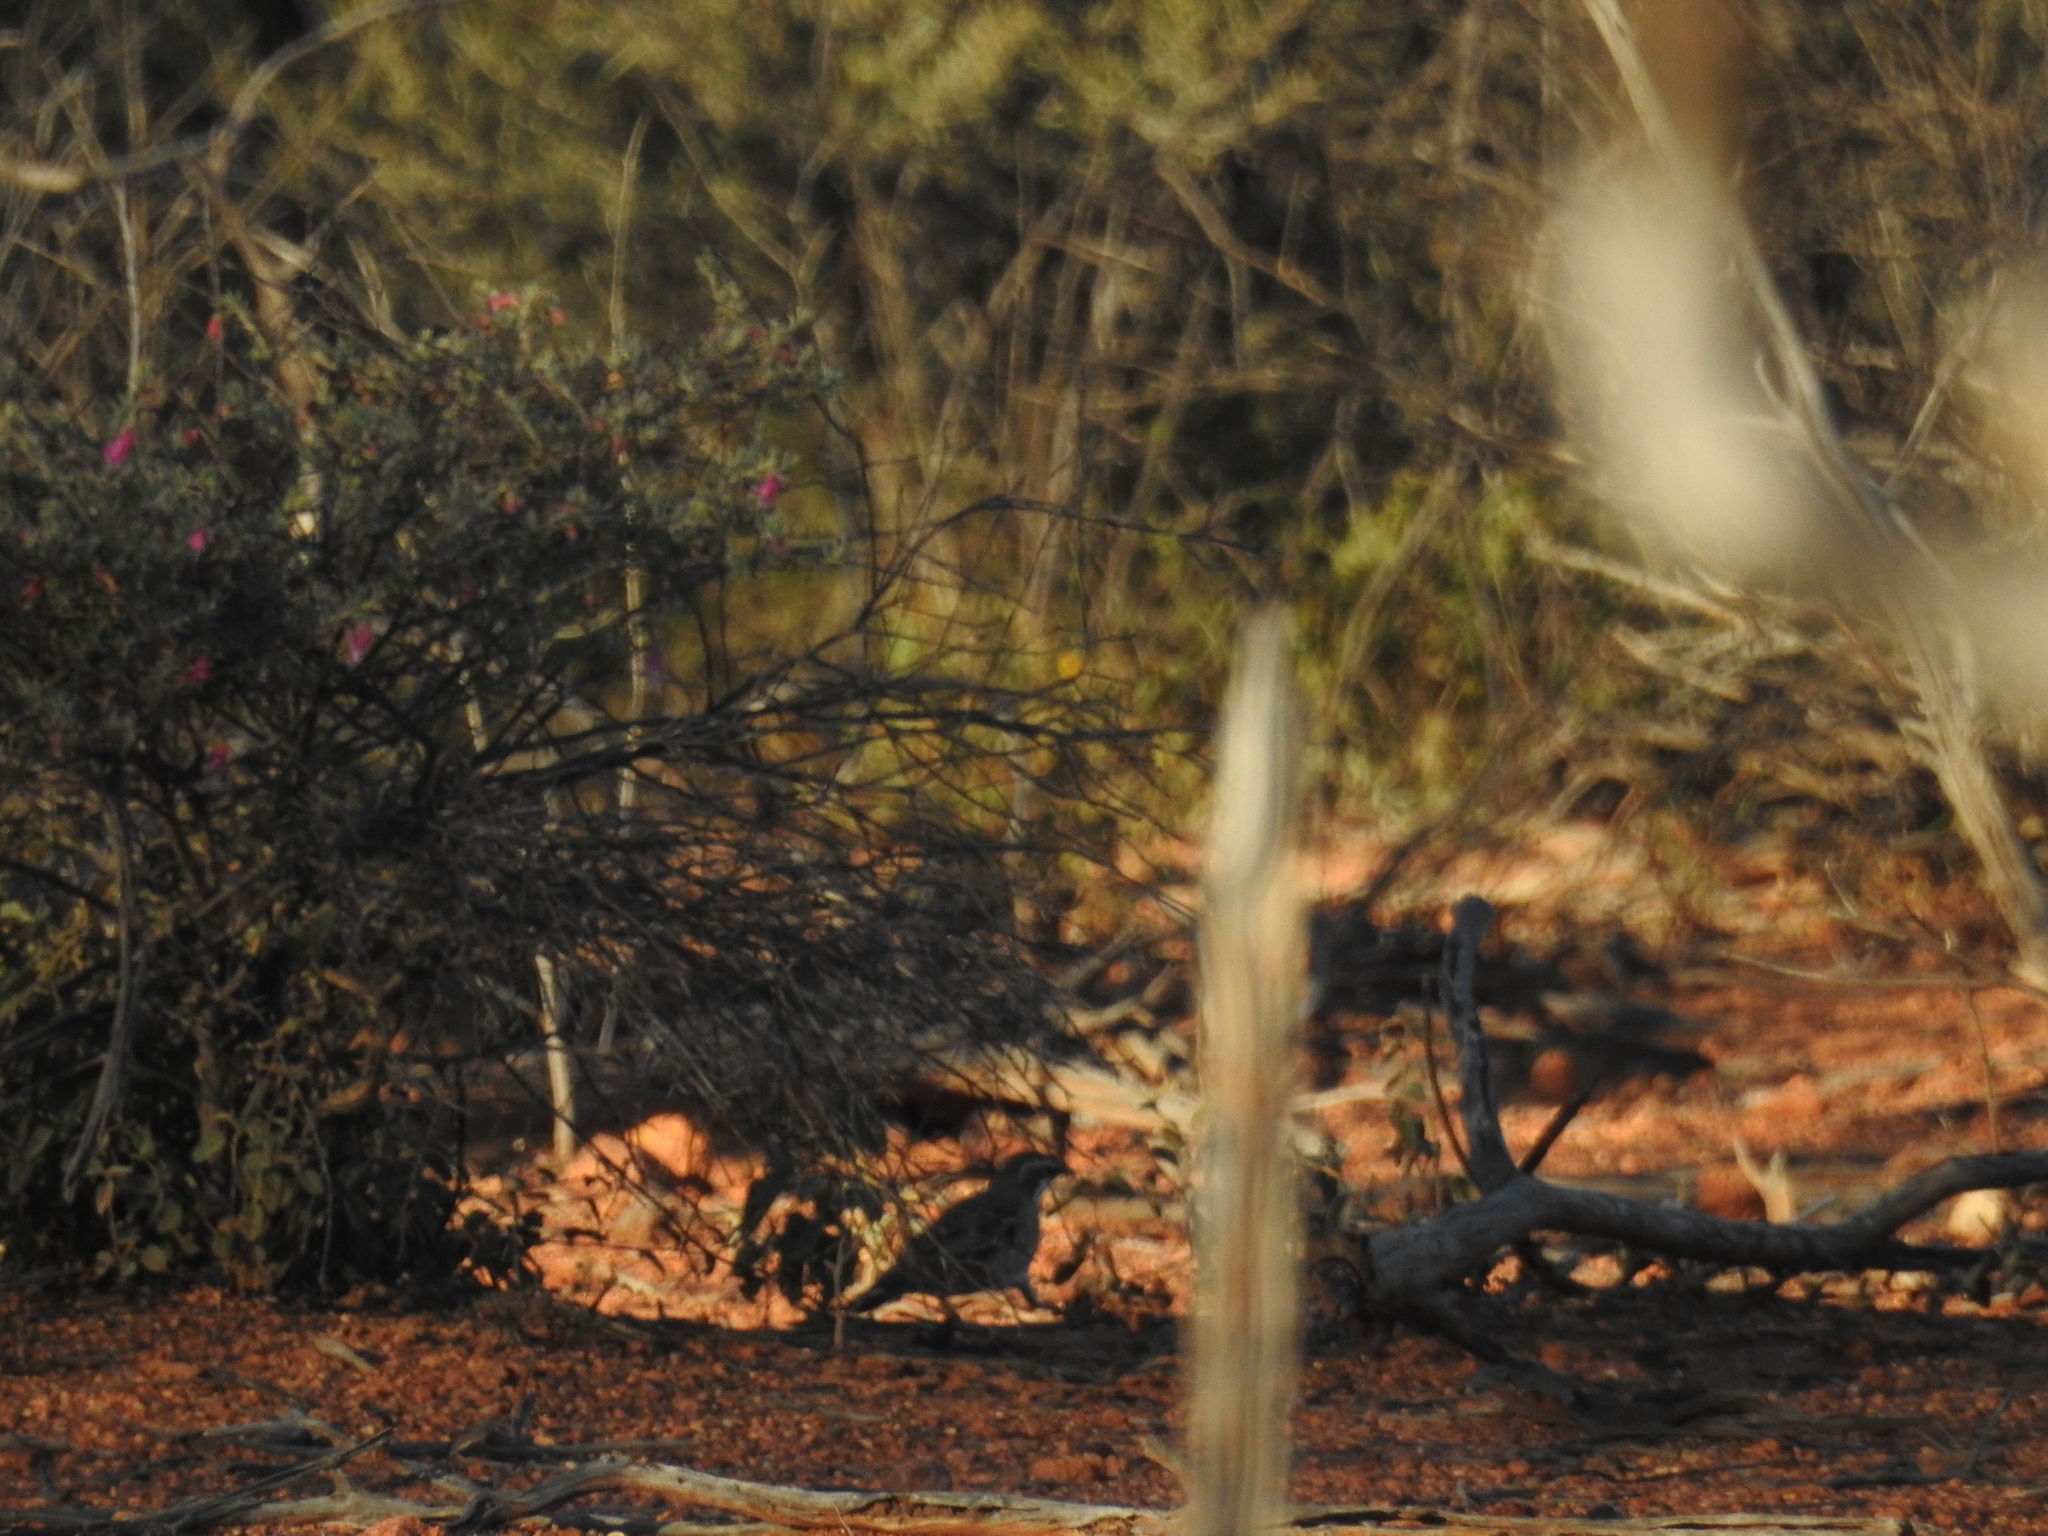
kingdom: Animalia
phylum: Chordata
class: Aves
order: Passeriformes
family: Psophodidae
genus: Cinclosoma
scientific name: Cinclosoma castaneothorax
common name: Chestnut-breasted quail-thrush
